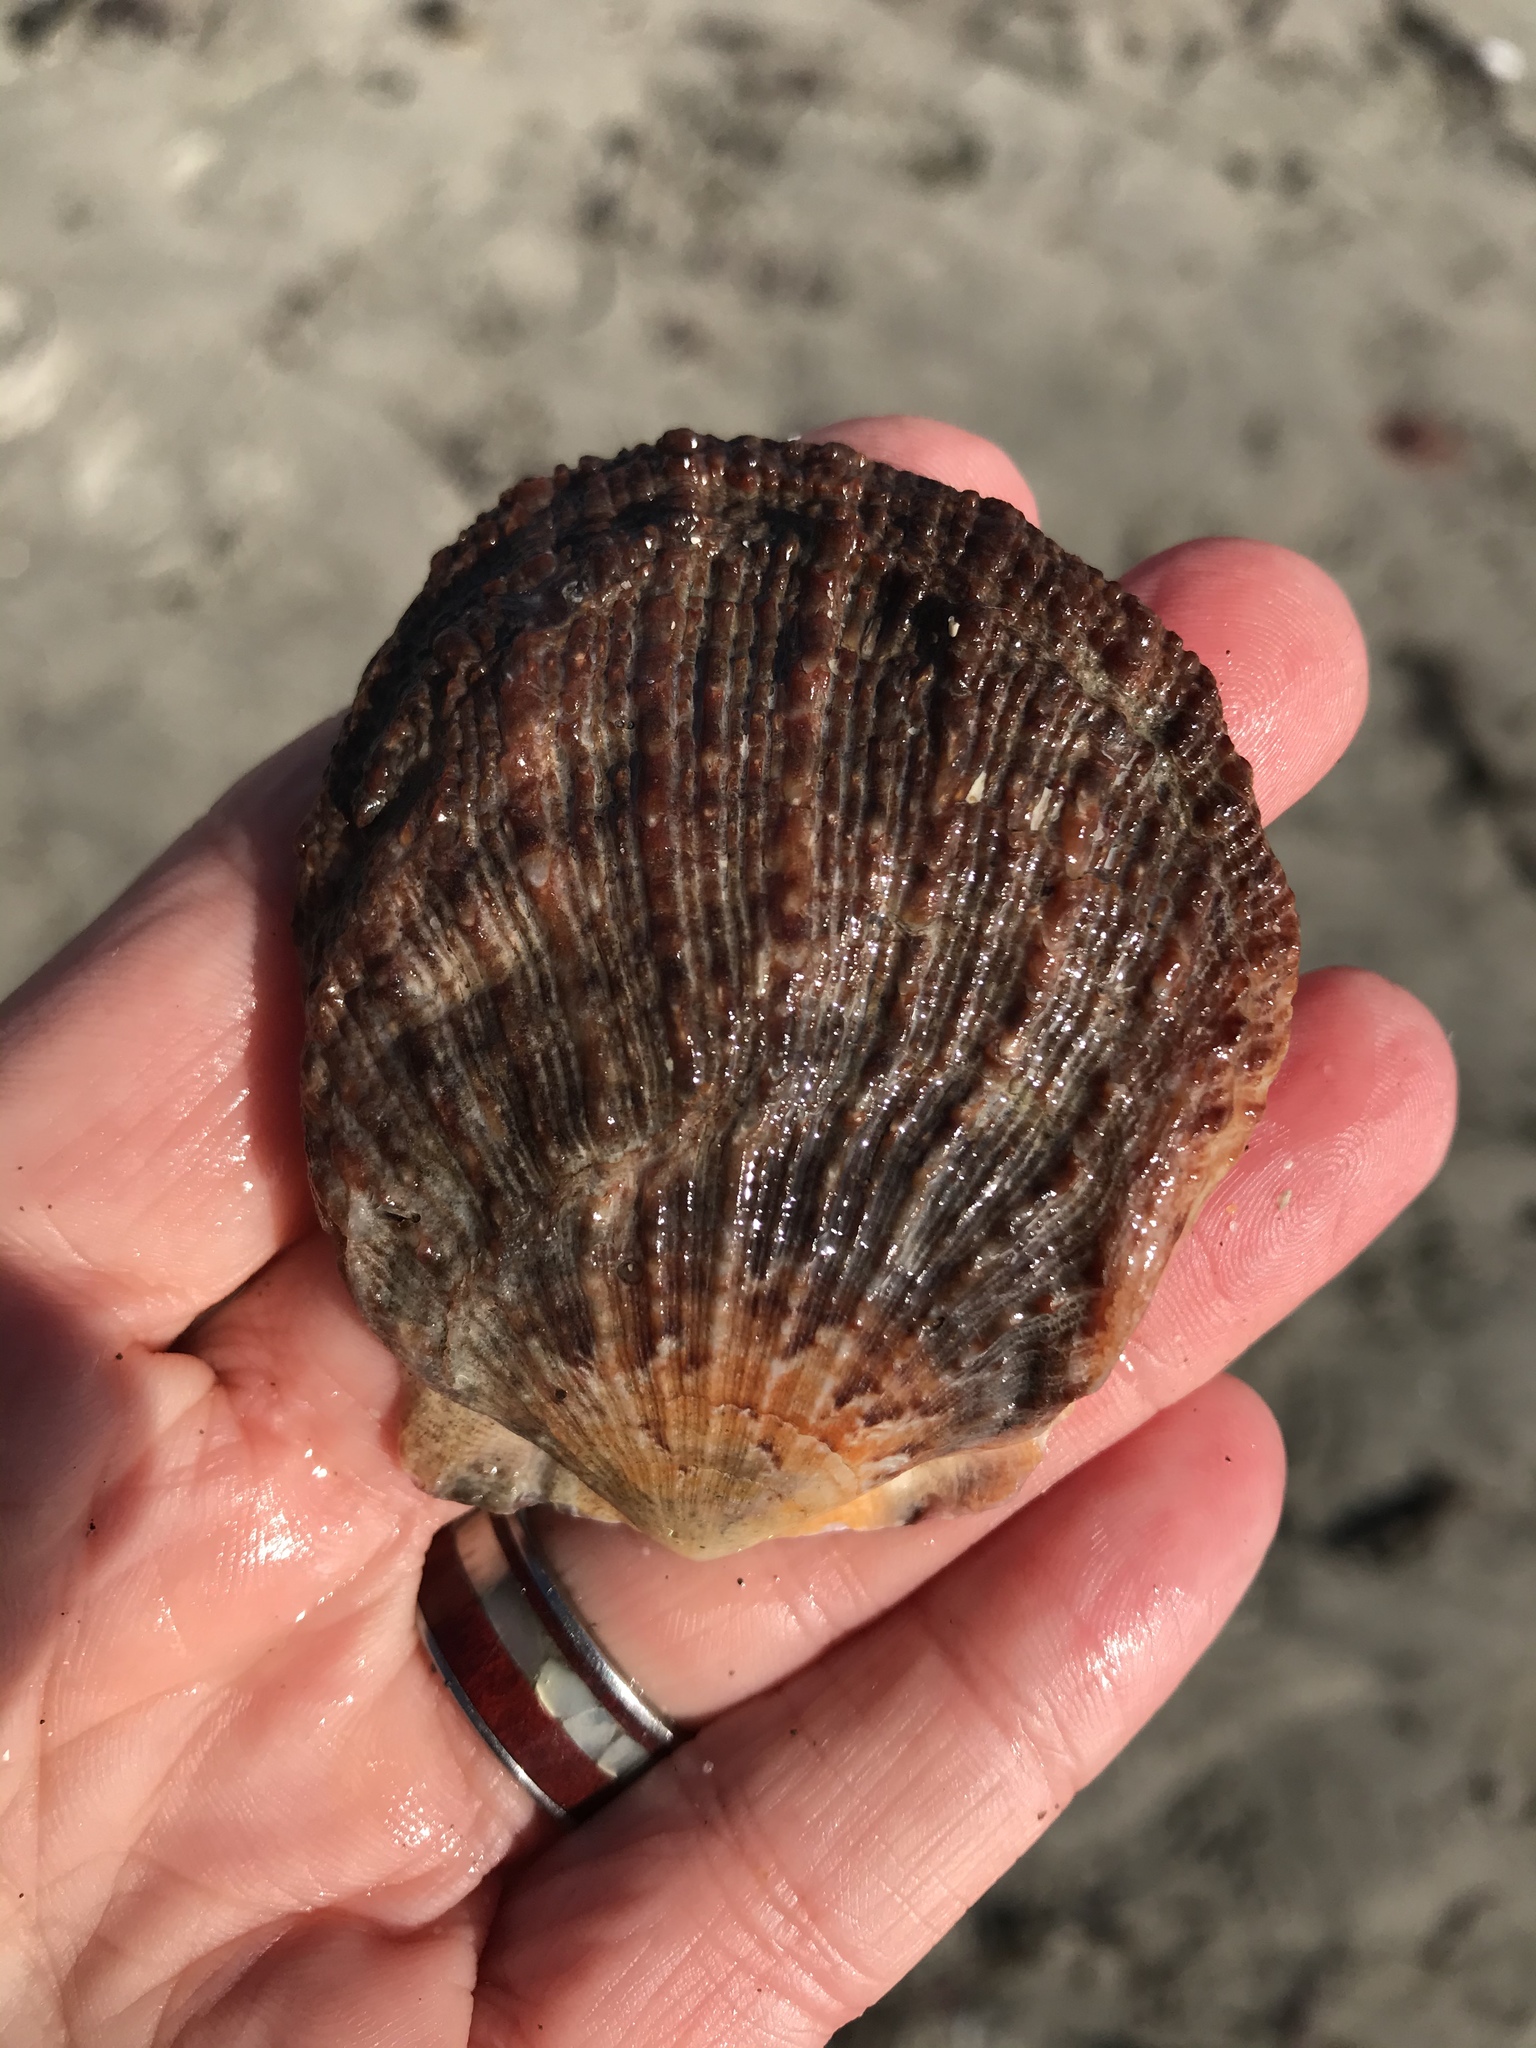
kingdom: Animalia
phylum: Mollusca
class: Bivalvia
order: Pectinida
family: Pectinidae
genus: Crassadoma
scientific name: Crassadoma gigantea
